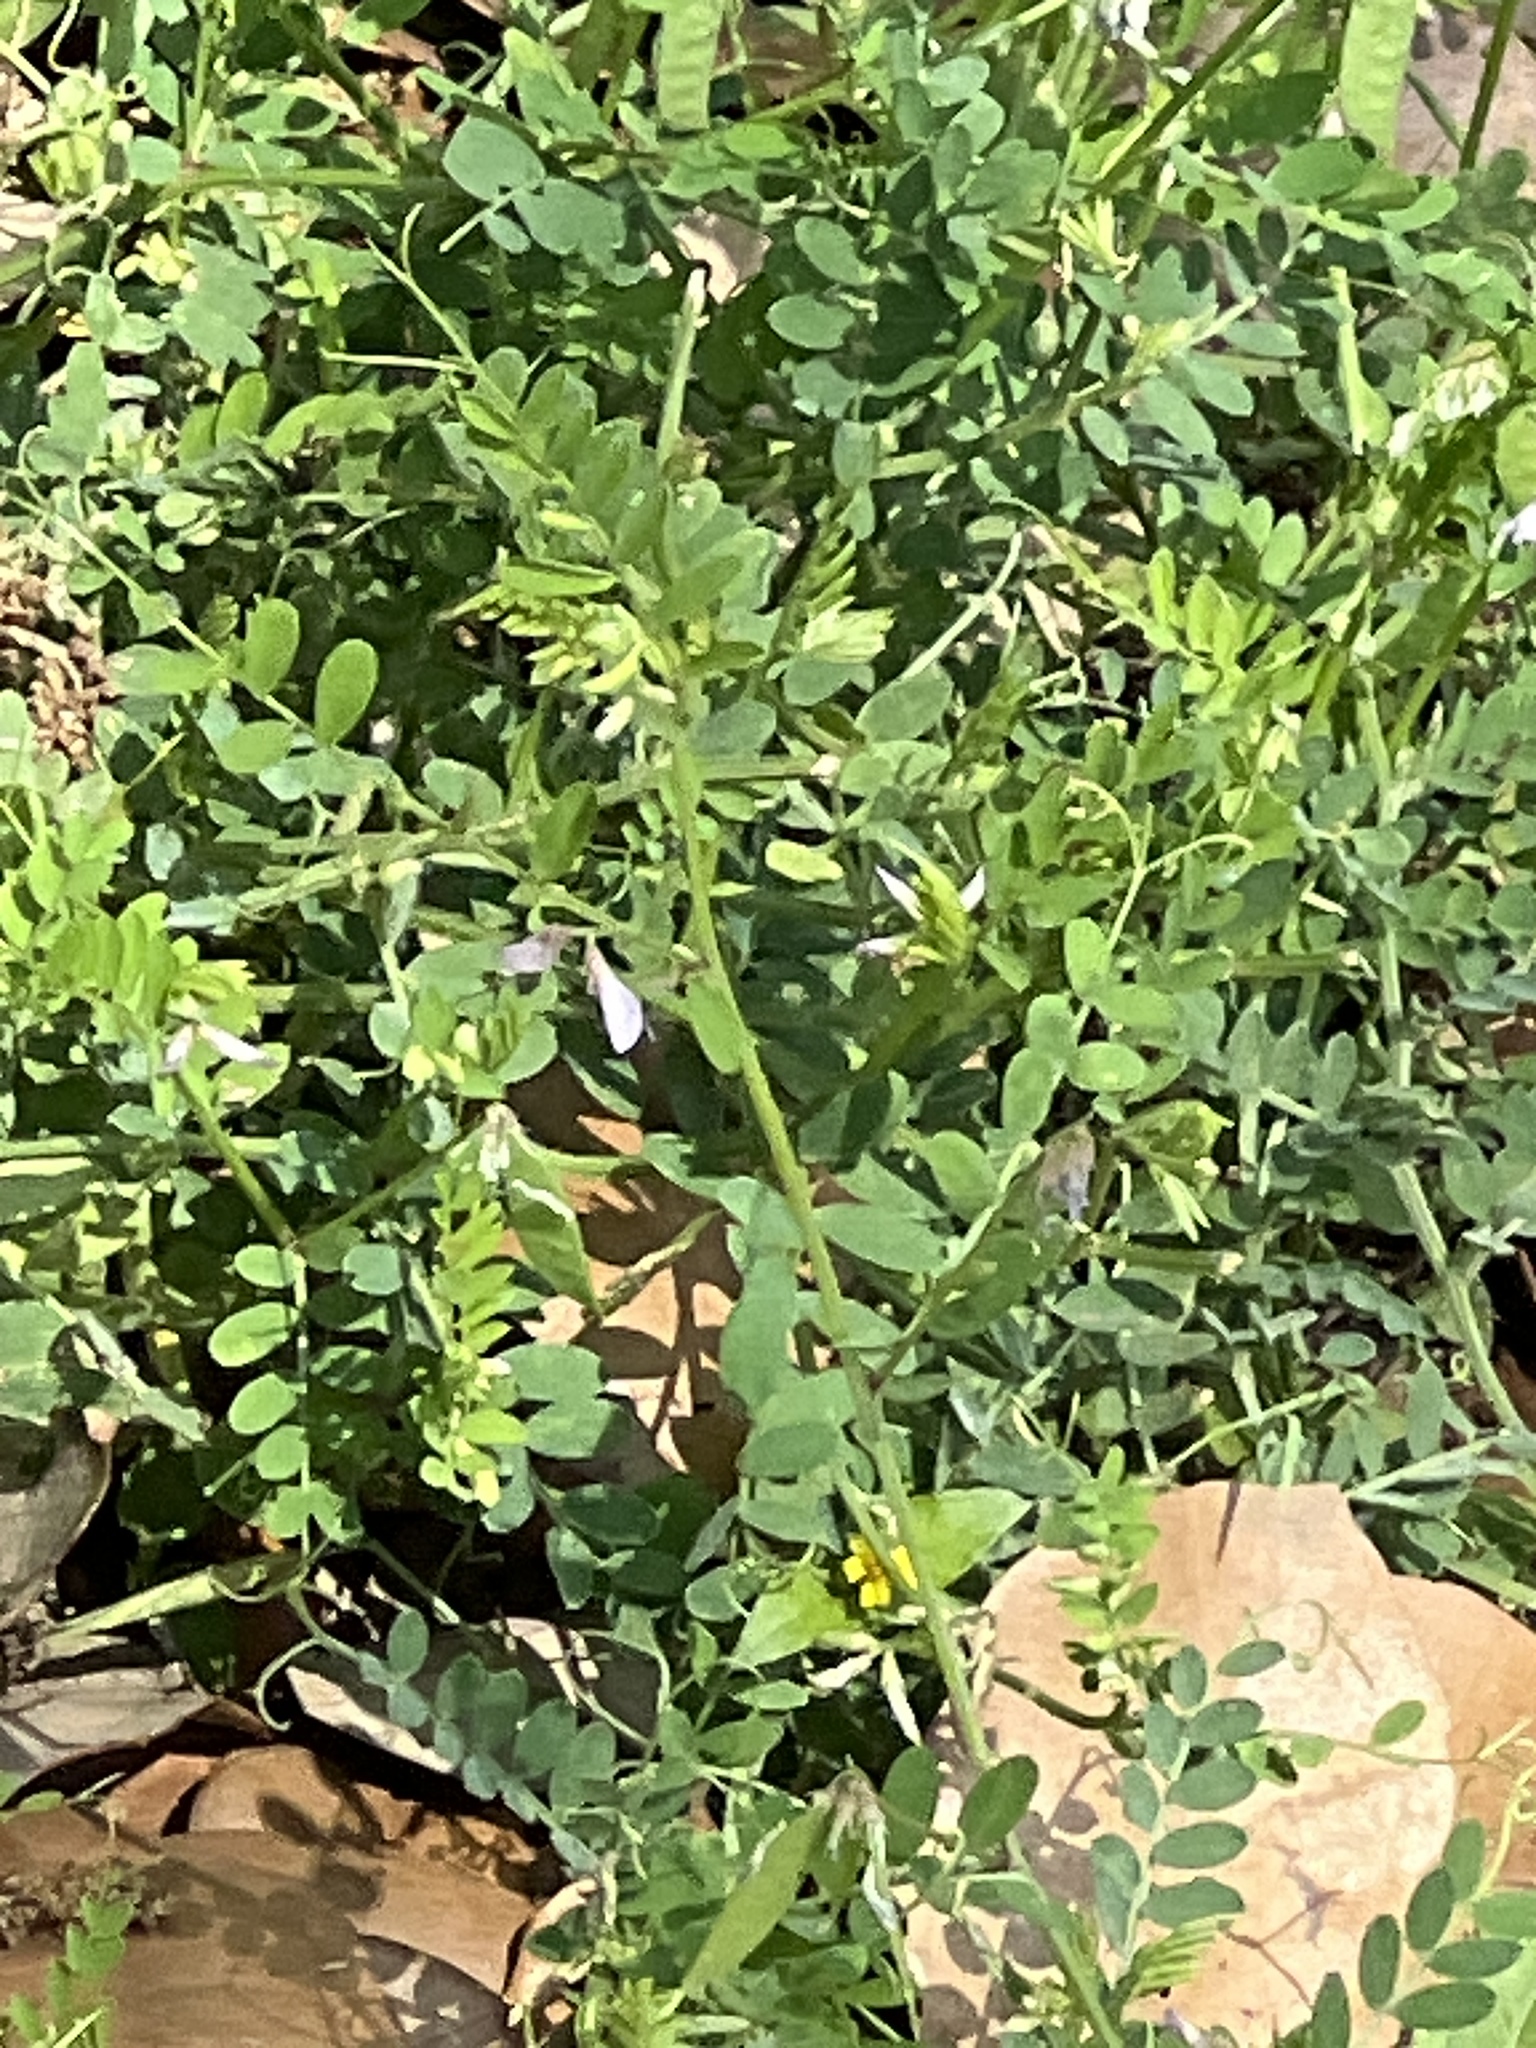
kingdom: Plantae
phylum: Tracheophyta
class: Magnoliopsida
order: Fabales
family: Fabaceae
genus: Vicia
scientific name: Vicia ludoviciana
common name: Louisiana vetch
